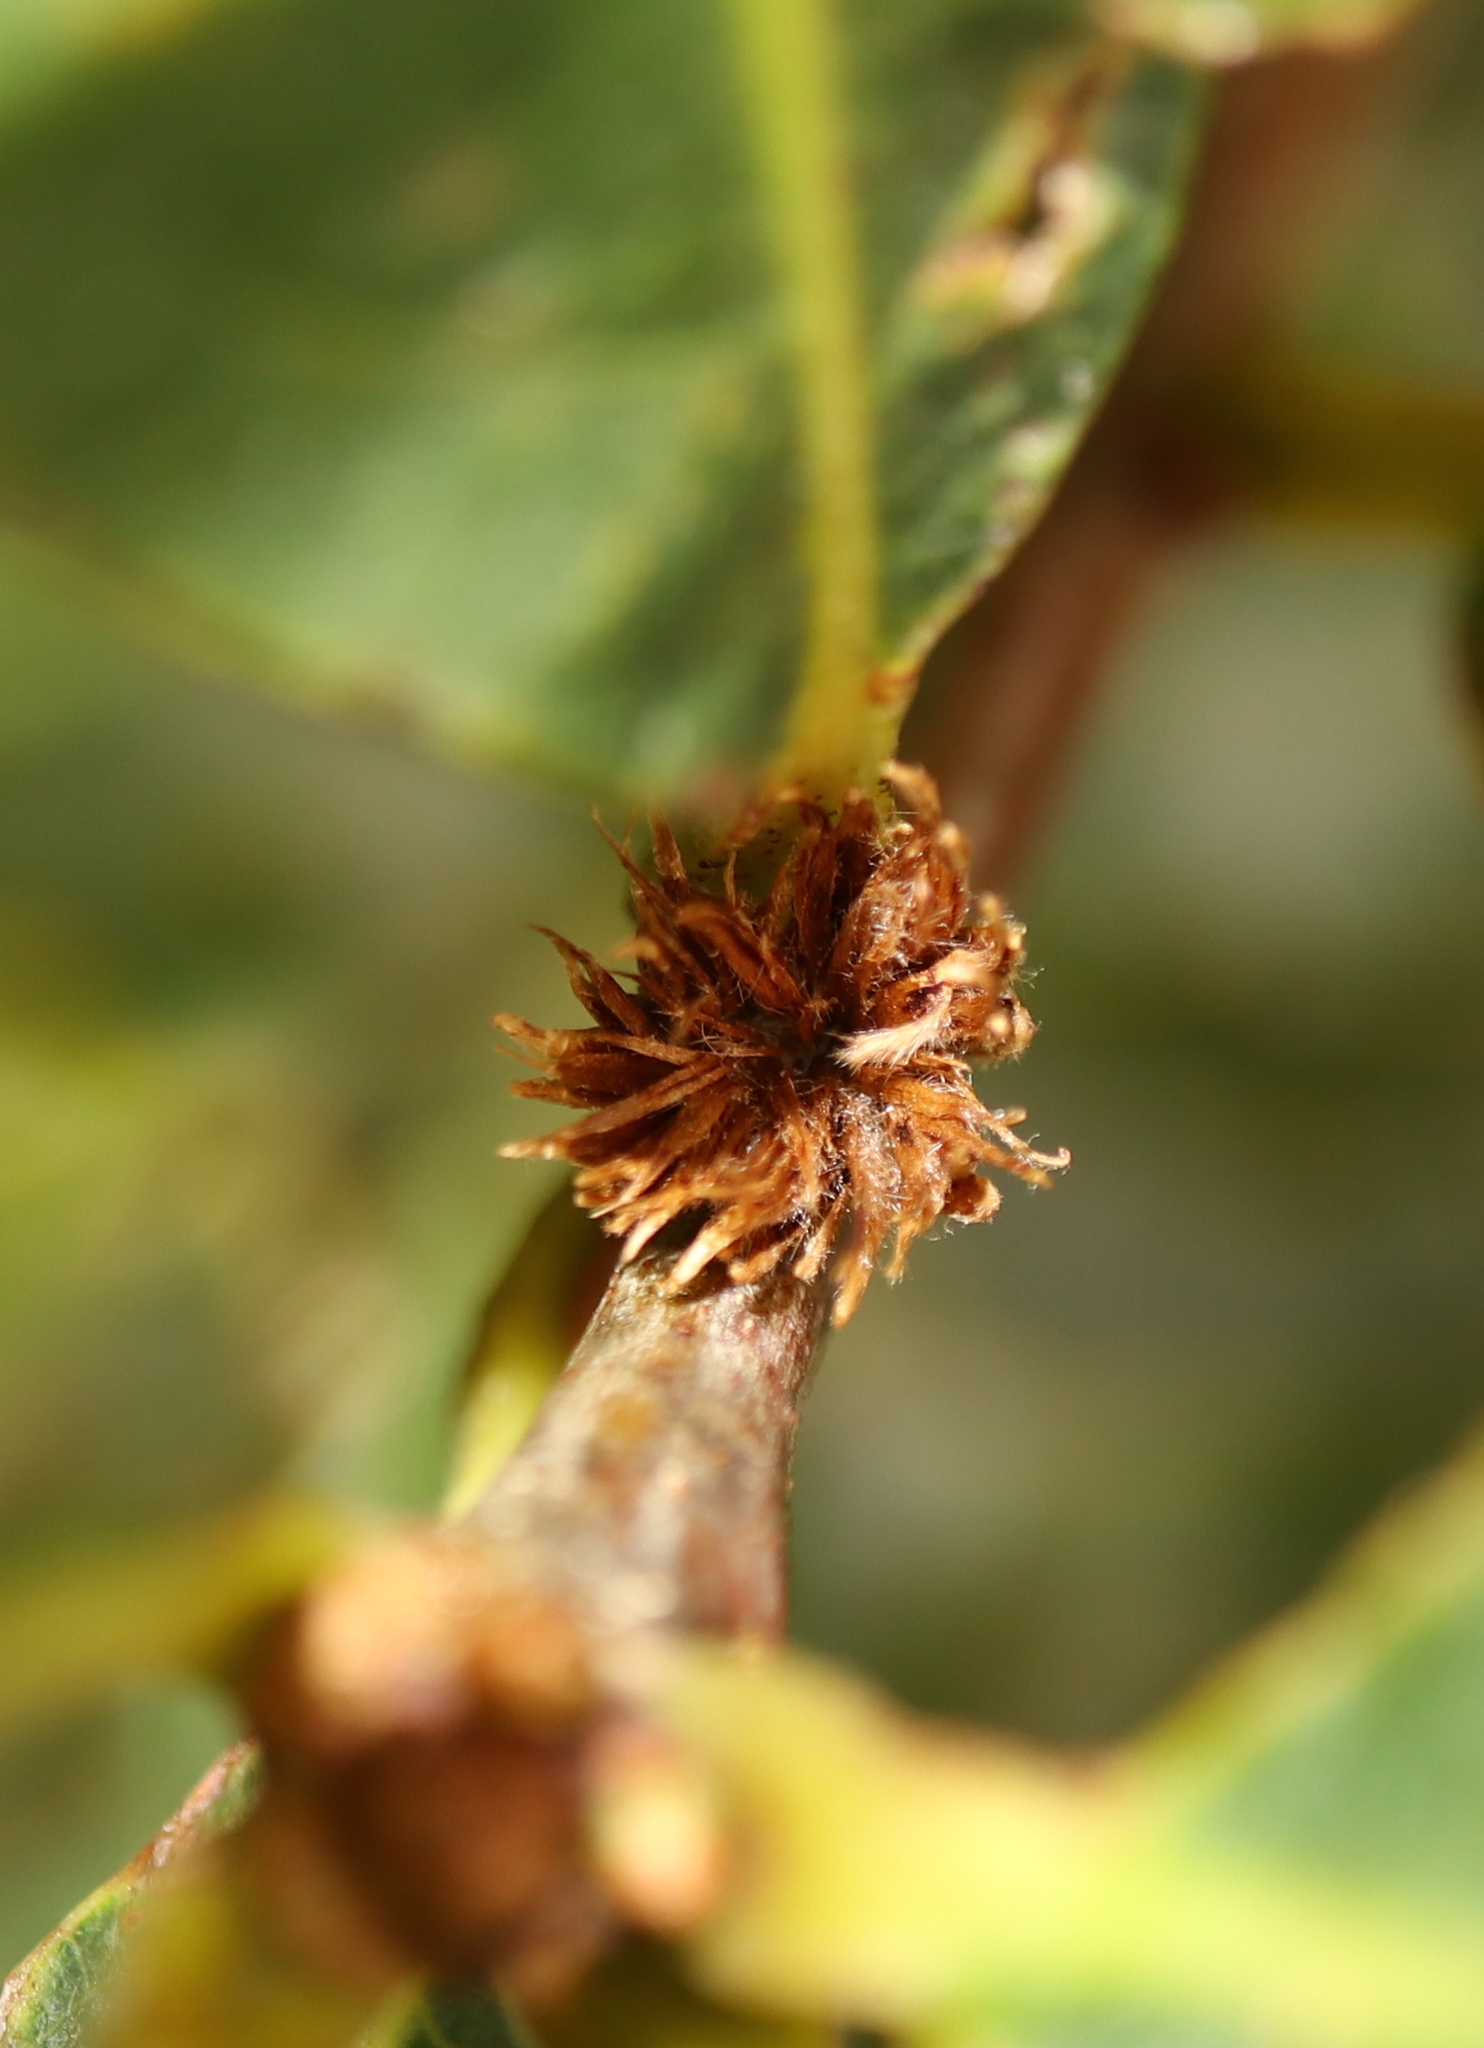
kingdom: Animalia
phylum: Arthropoda
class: Insecta
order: Hymenoptera
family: Cynipidae
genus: Andricus
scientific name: Andricus
